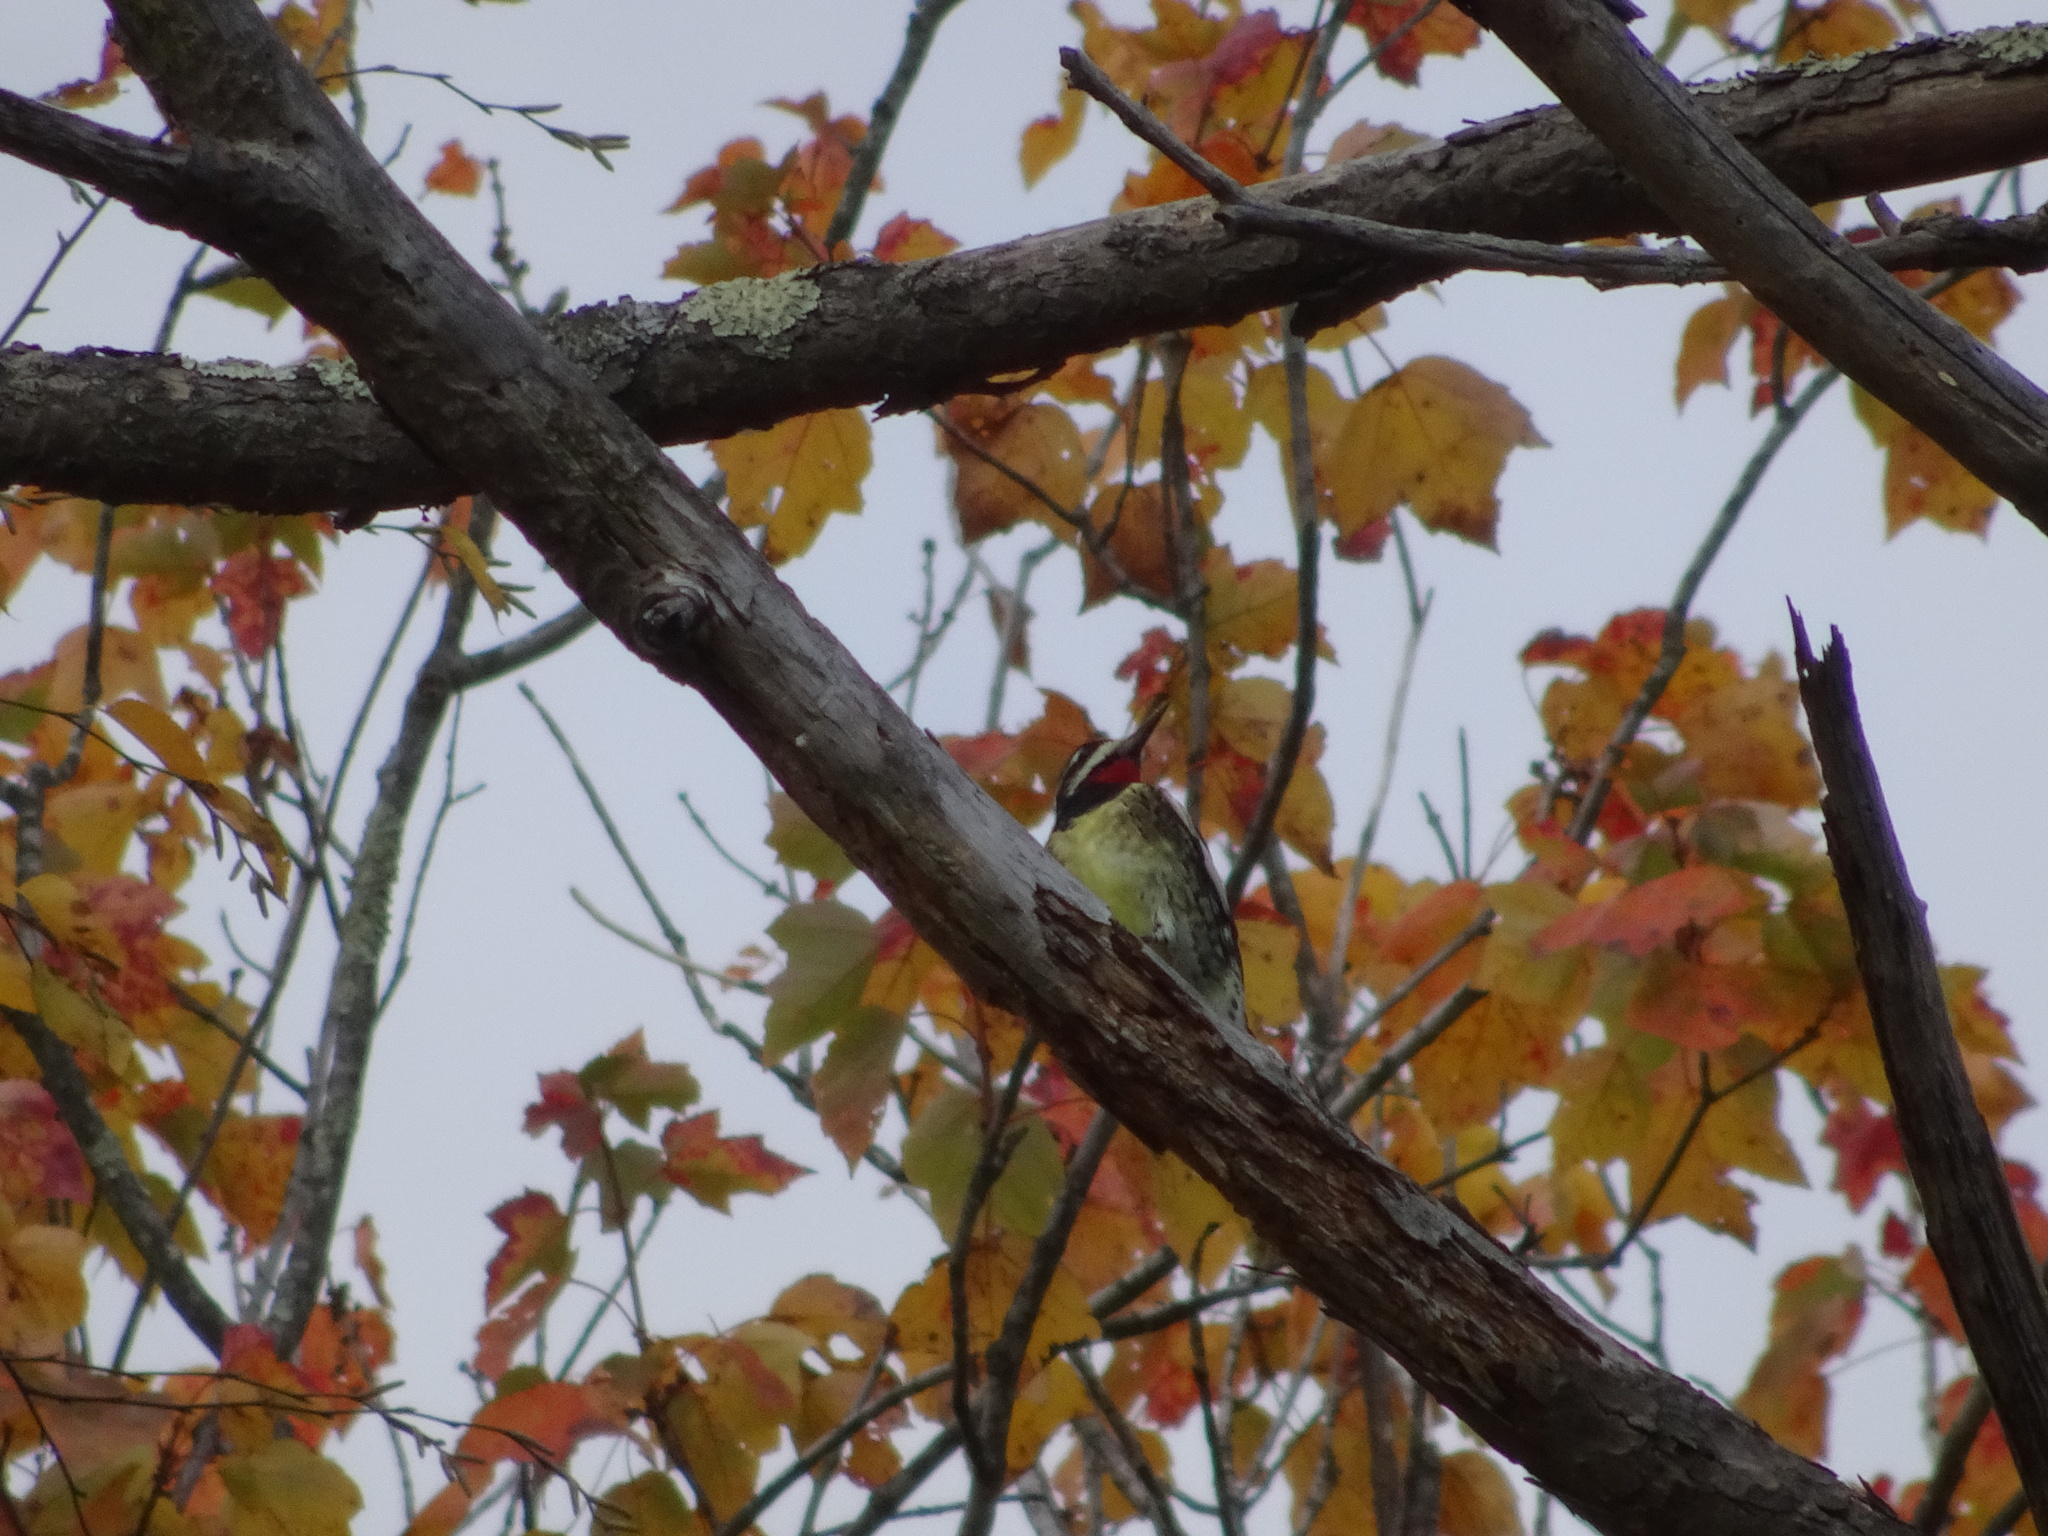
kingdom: Animalia
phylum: Chordata
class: Aves
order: Piciformes
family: Picidae
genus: Sphyrapicus
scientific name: Sphyrapicus varius
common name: Yellow-bellied sapsucker
